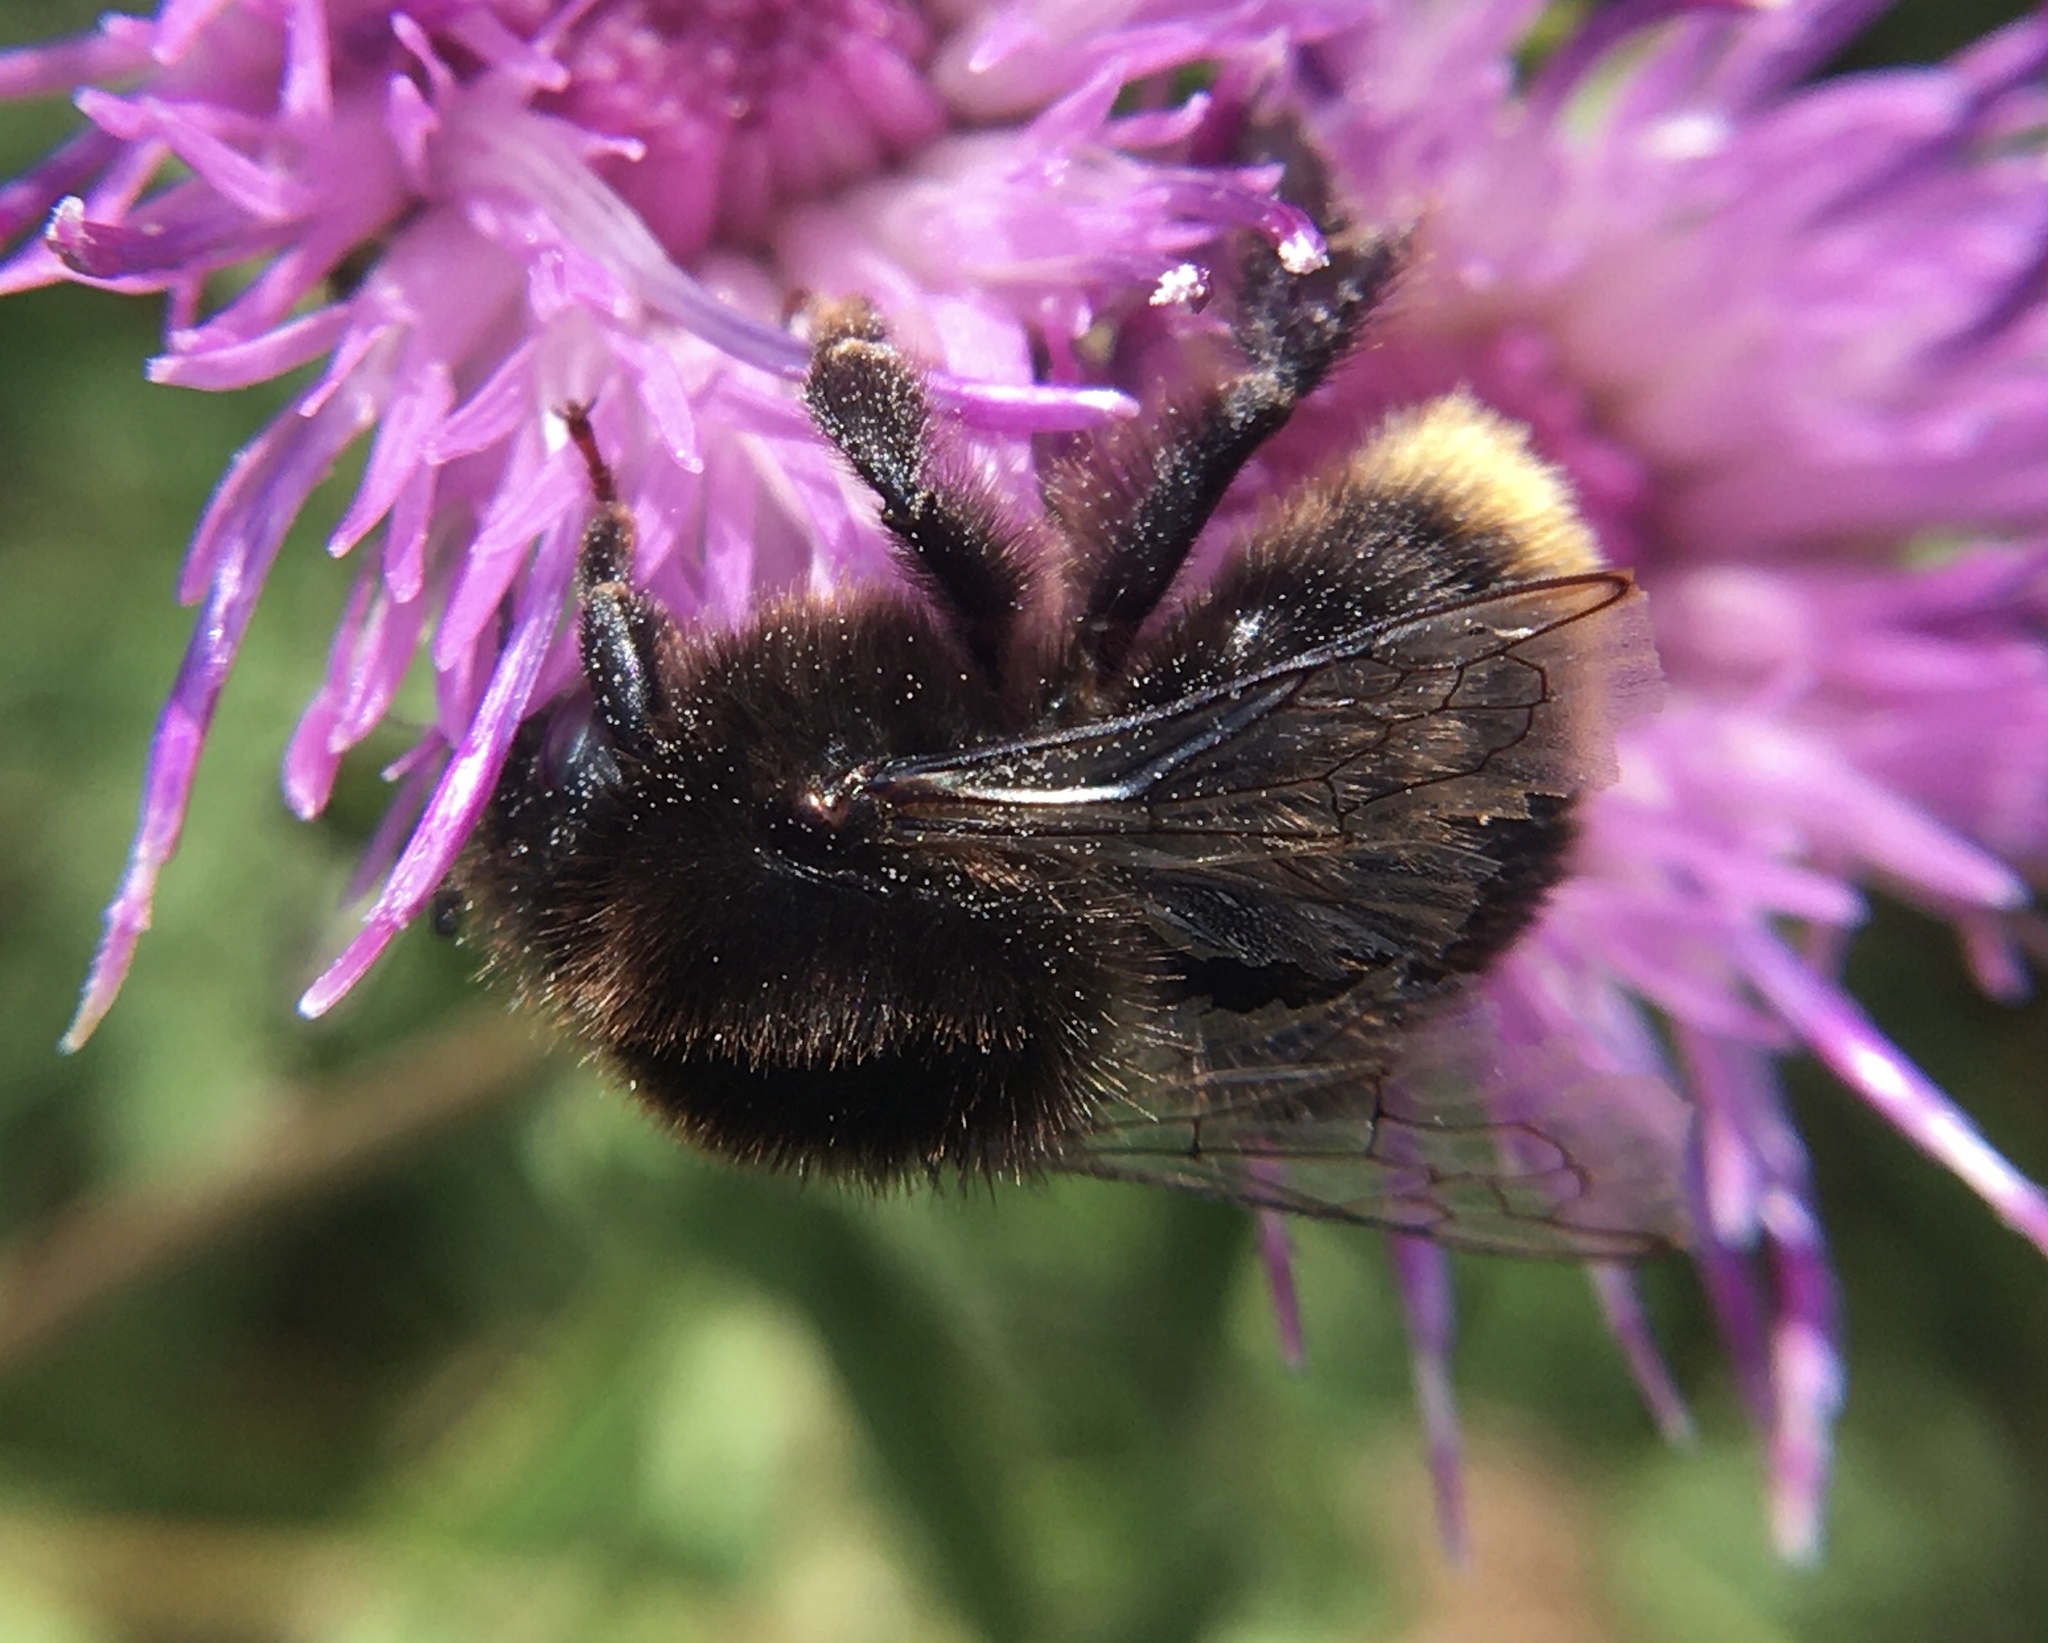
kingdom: Animalia
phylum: Arthropoda
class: Insecta
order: Hymenoptera
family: Apidae
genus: Bombus
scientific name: Bombus lapidarius
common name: Large red-tailed humble-bee
